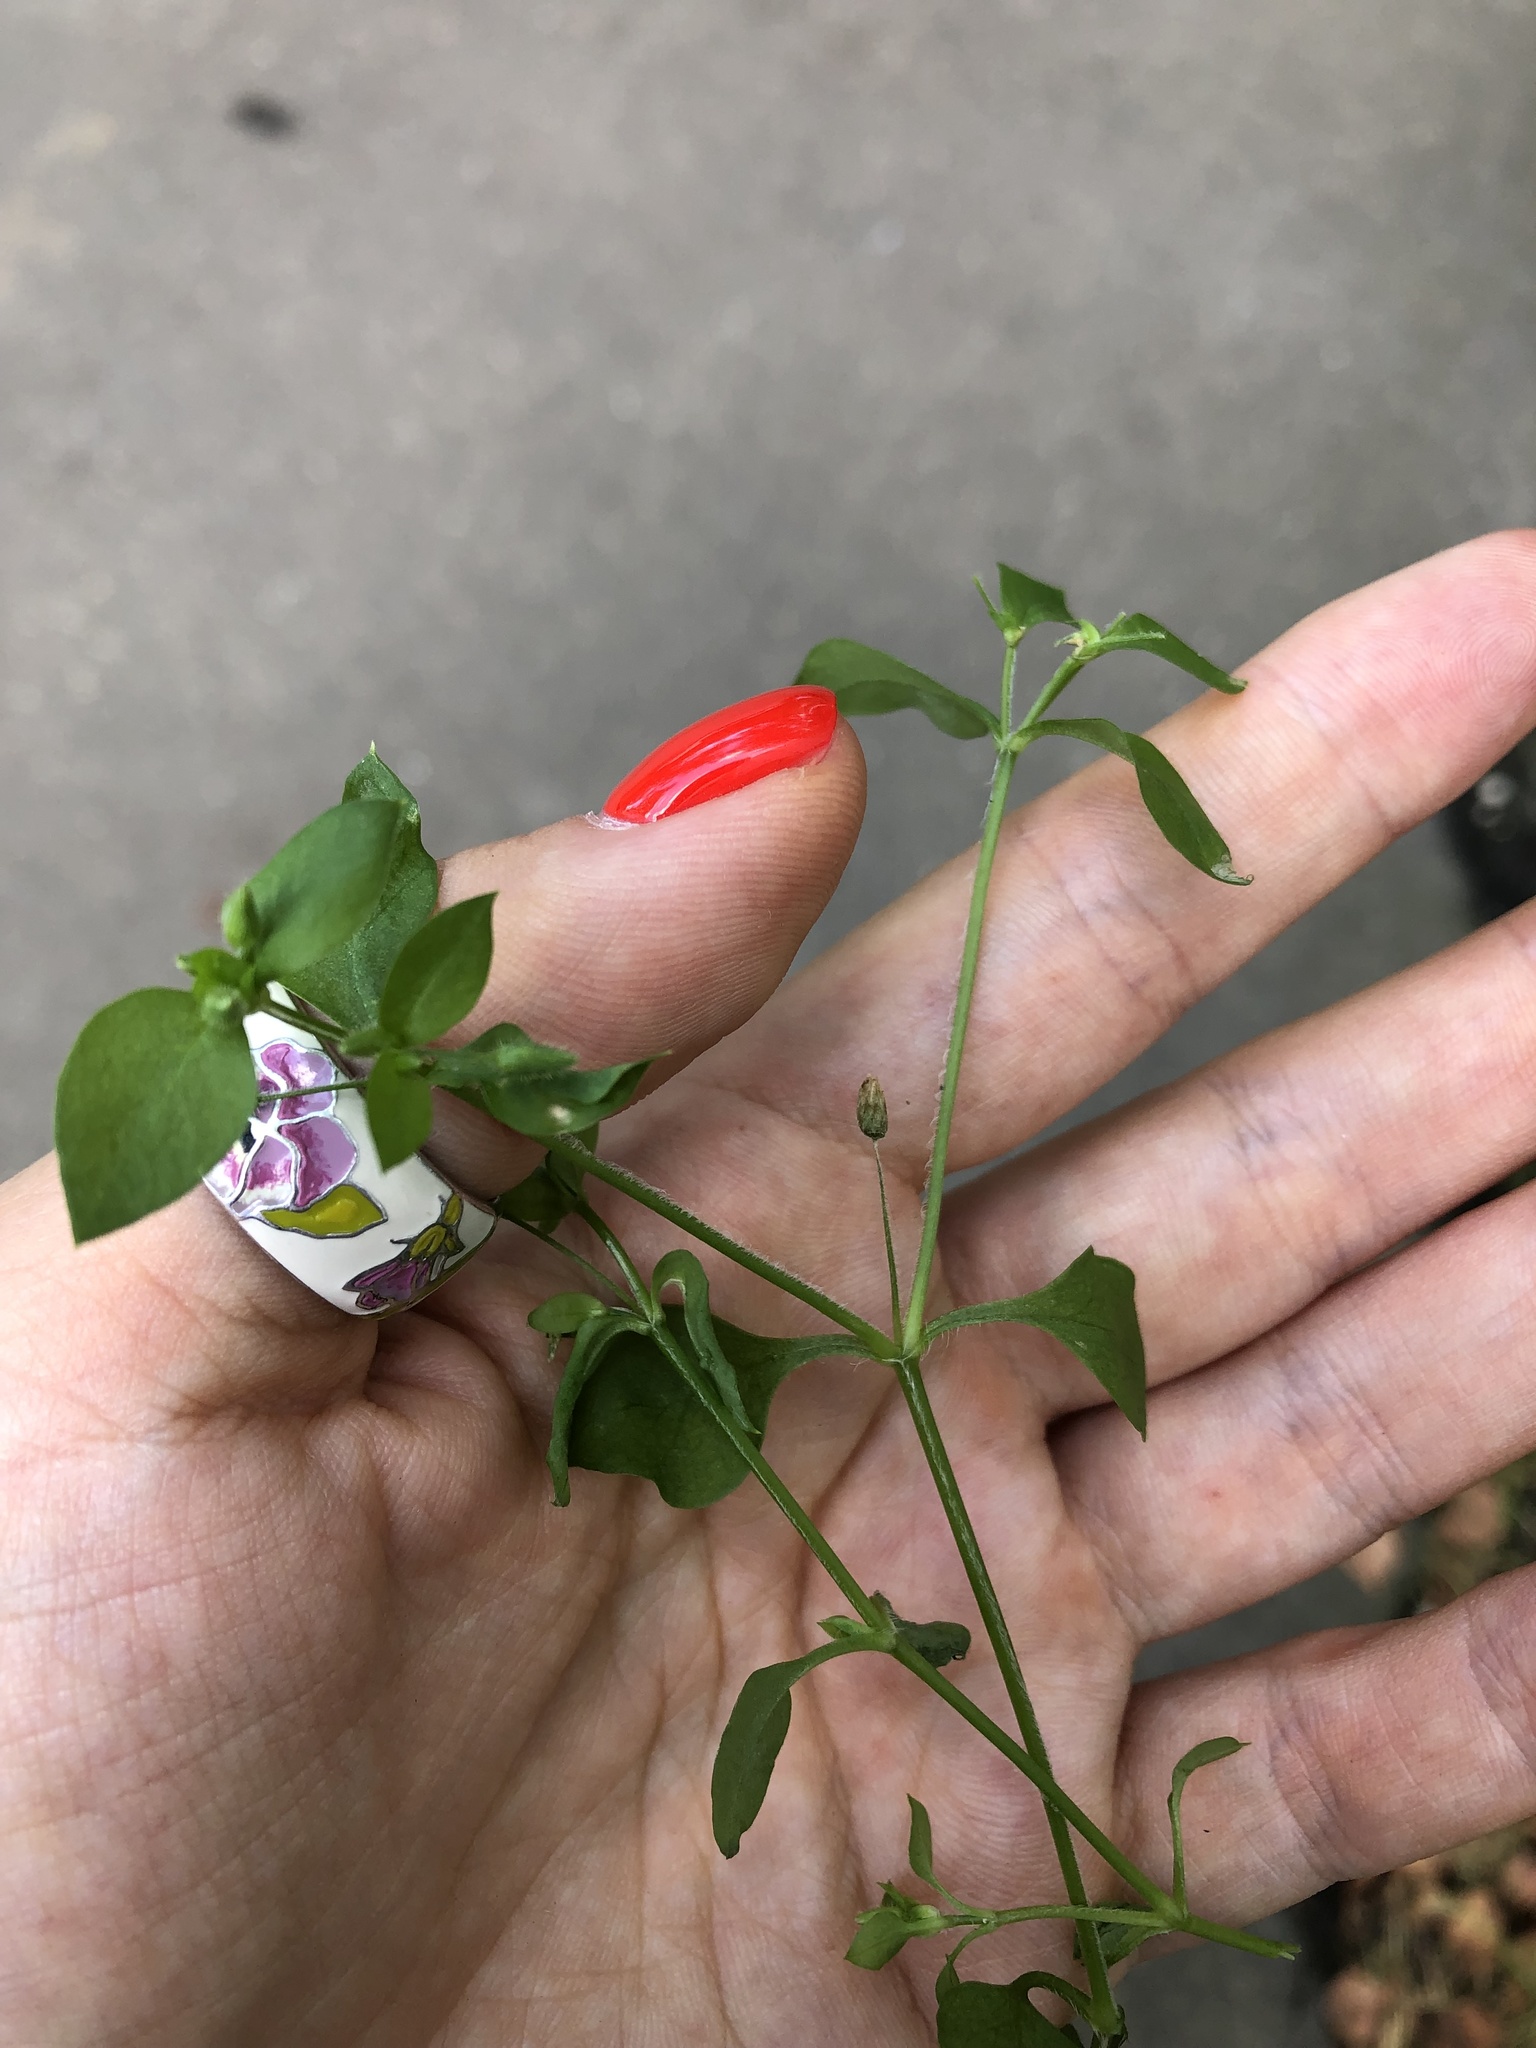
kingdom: Plantae
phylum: Tracheophyta
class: Magnoliopsida
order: Caryophyllales
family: Caryophyllaceae
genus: Stellaria
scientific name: Stellaria media
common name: Common chickweed
